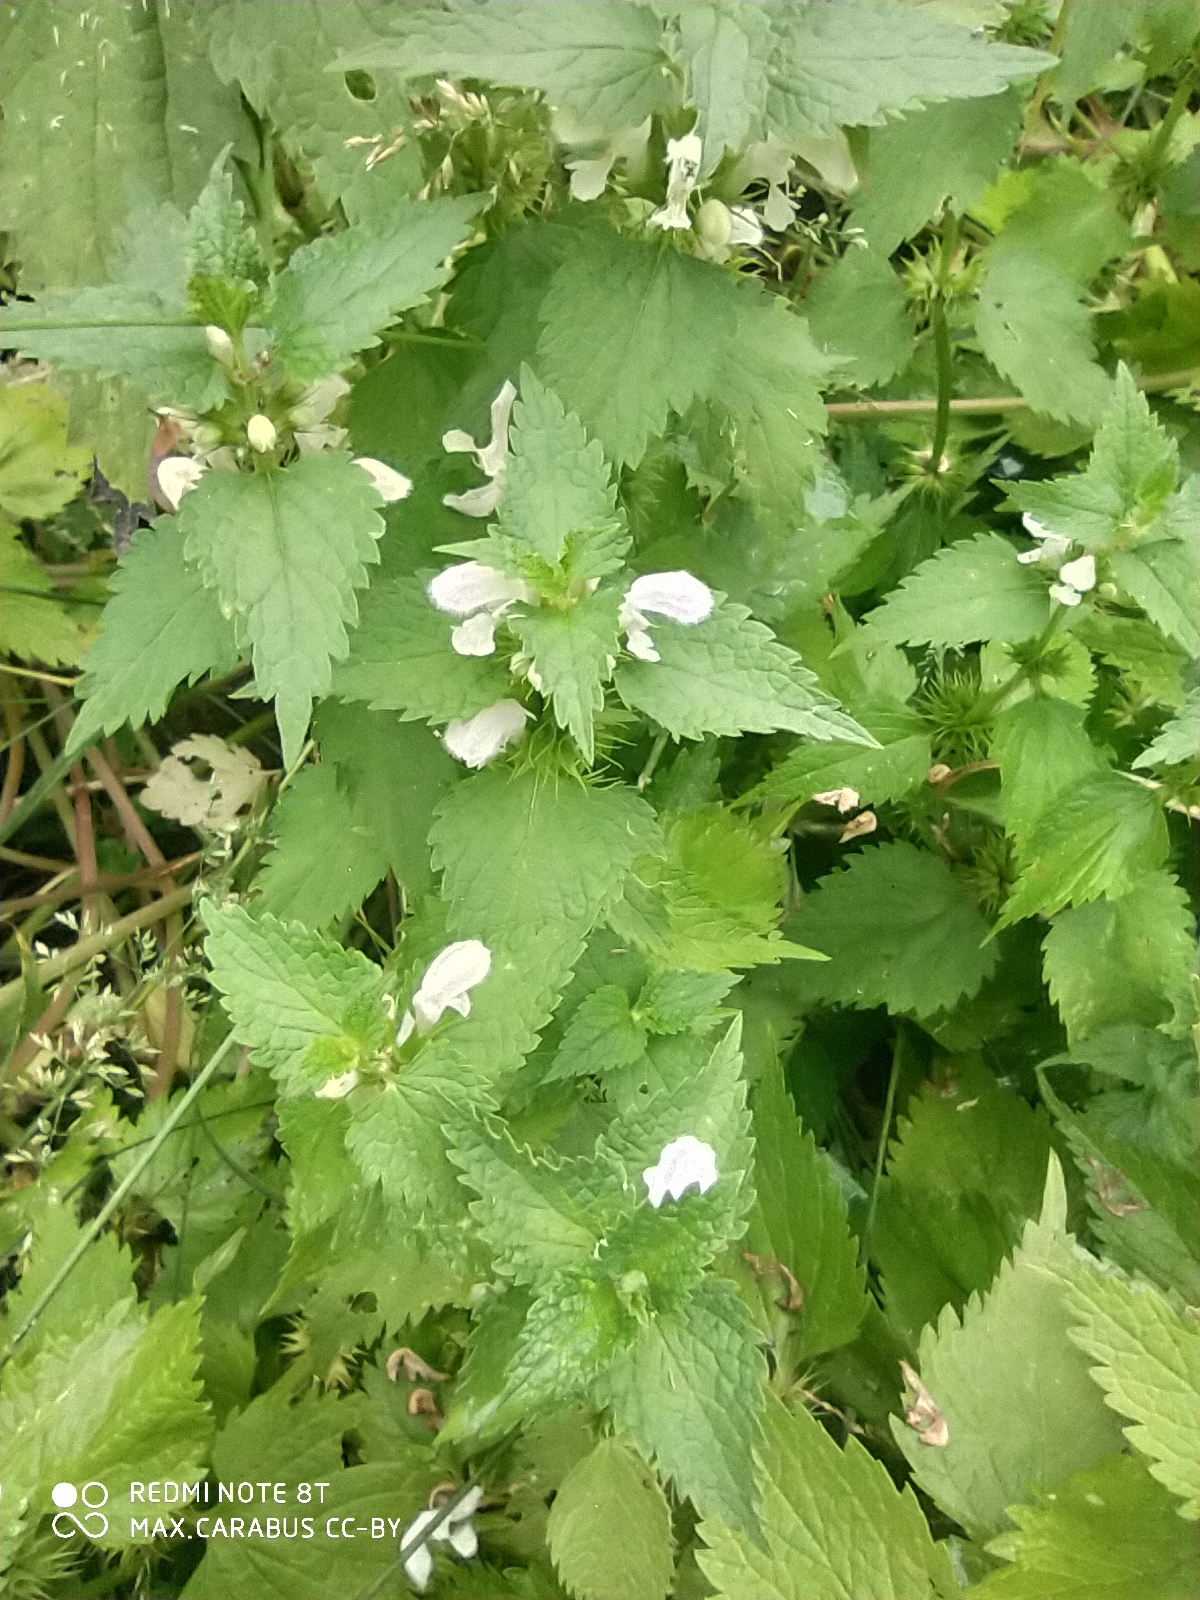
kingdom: Plantae
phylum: Tracheophyta
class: Magnoliopsida
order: Lamiales
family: Lamiaceae
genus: Lamium
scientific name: Lamium album
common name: White dead-nettle
